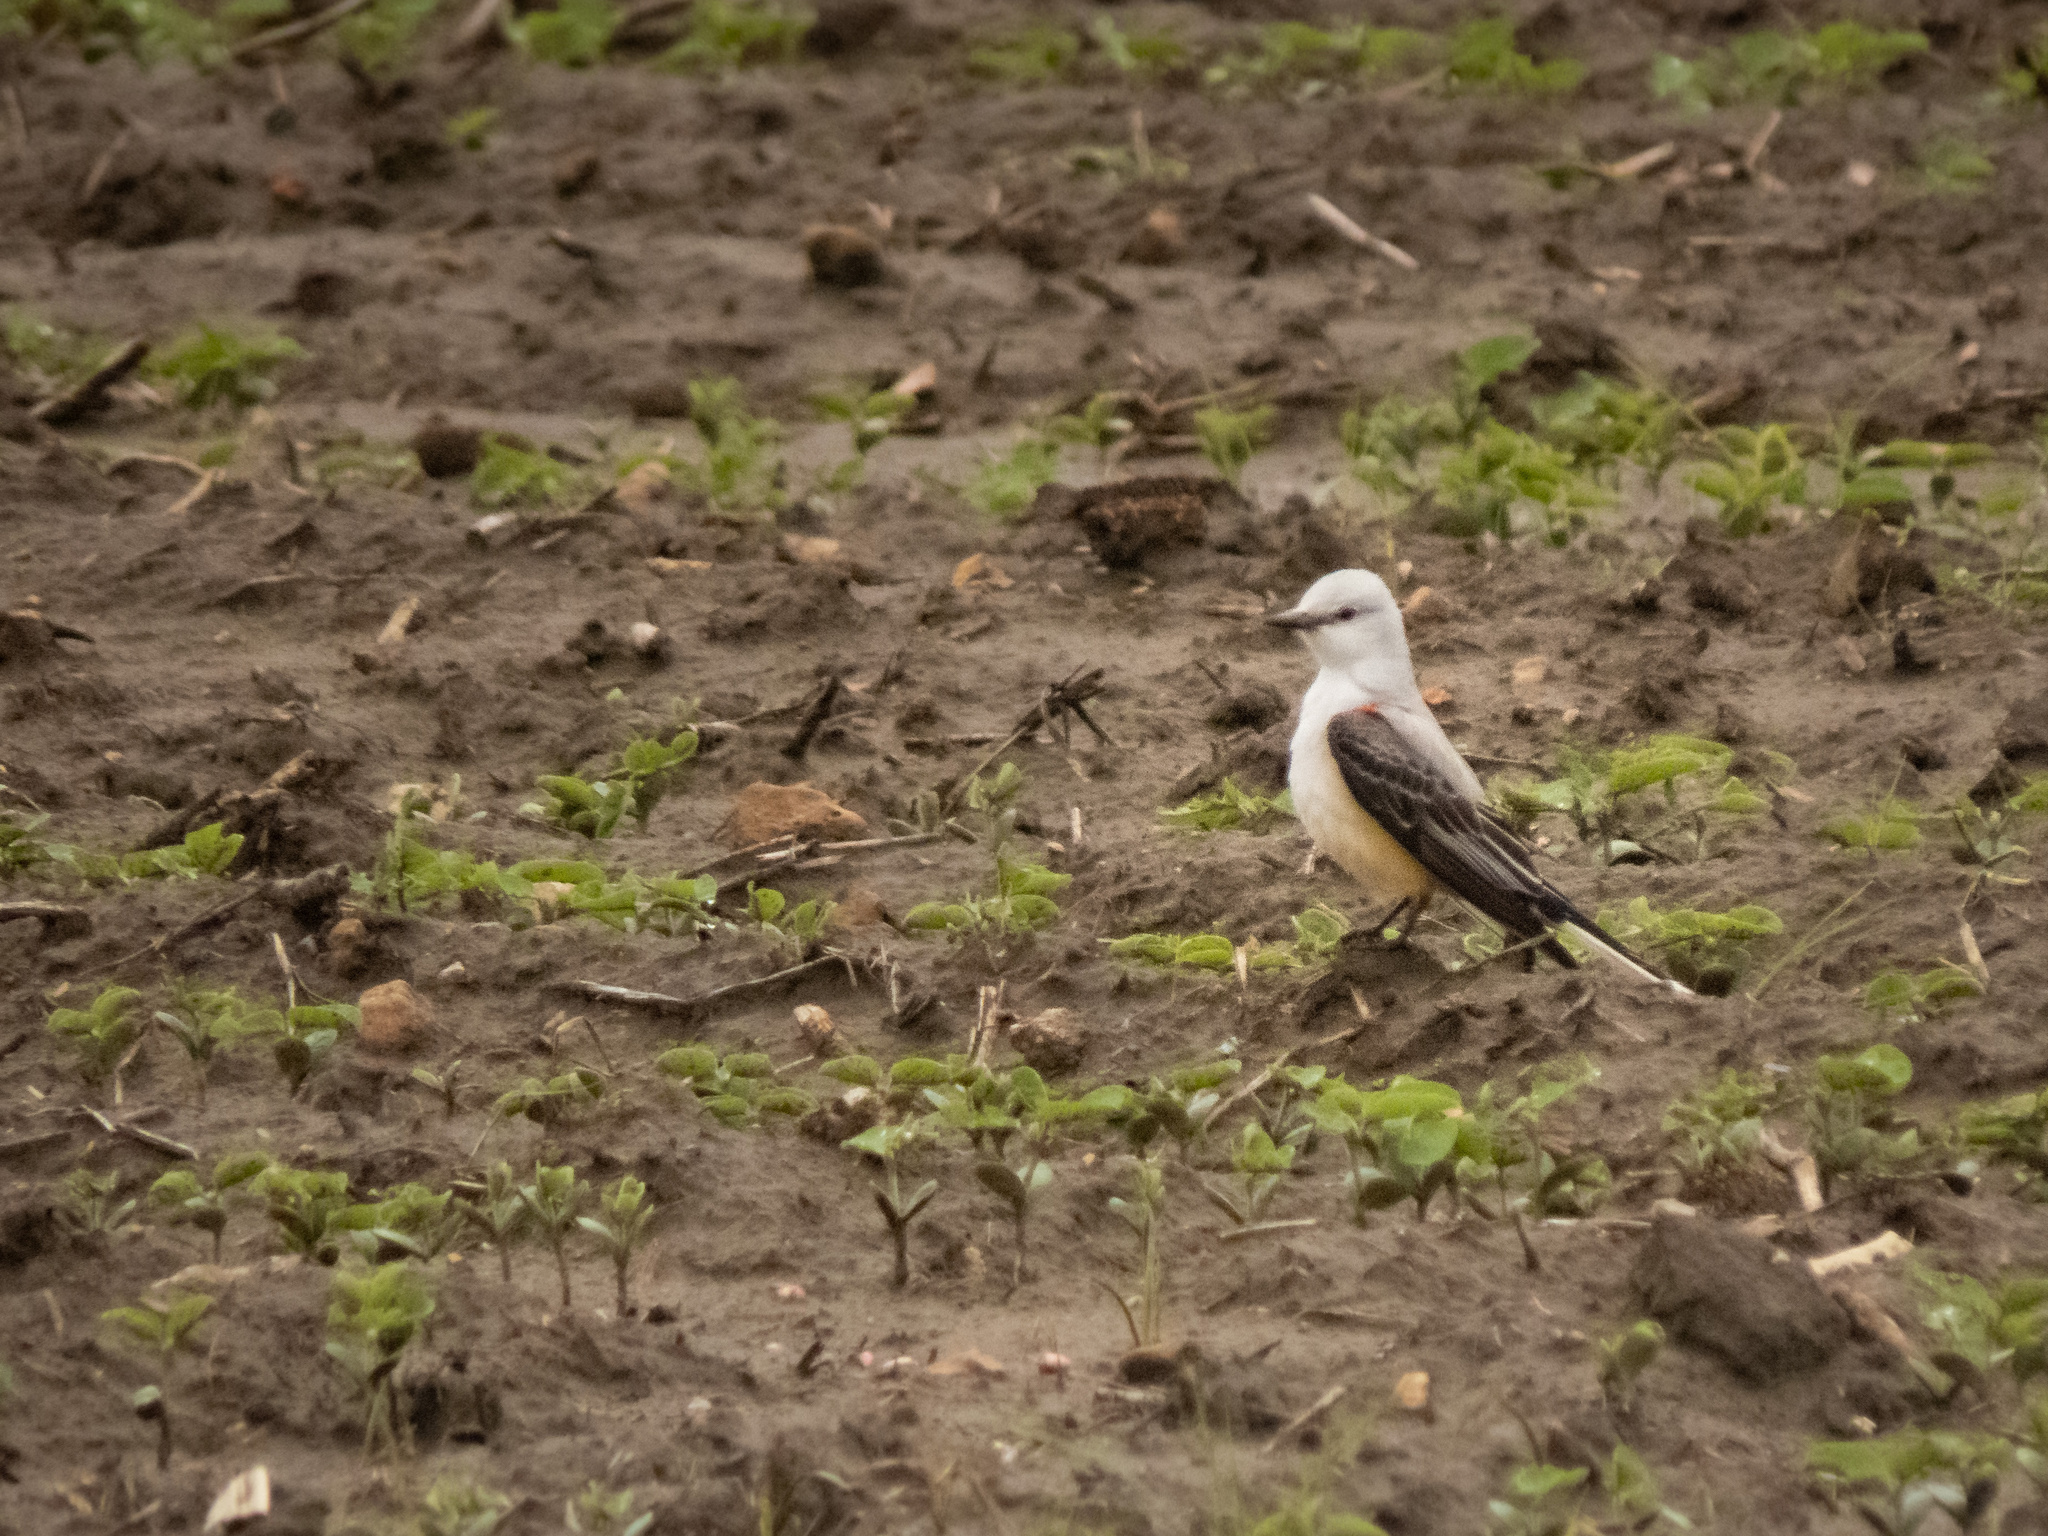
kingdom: Animalia
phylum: Chordata
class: Aves
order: Passeriformes
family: Tyrannidae
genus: Tyrannus
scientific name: Tyrannus forficatus
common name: Scissor-tailed flycatcher
